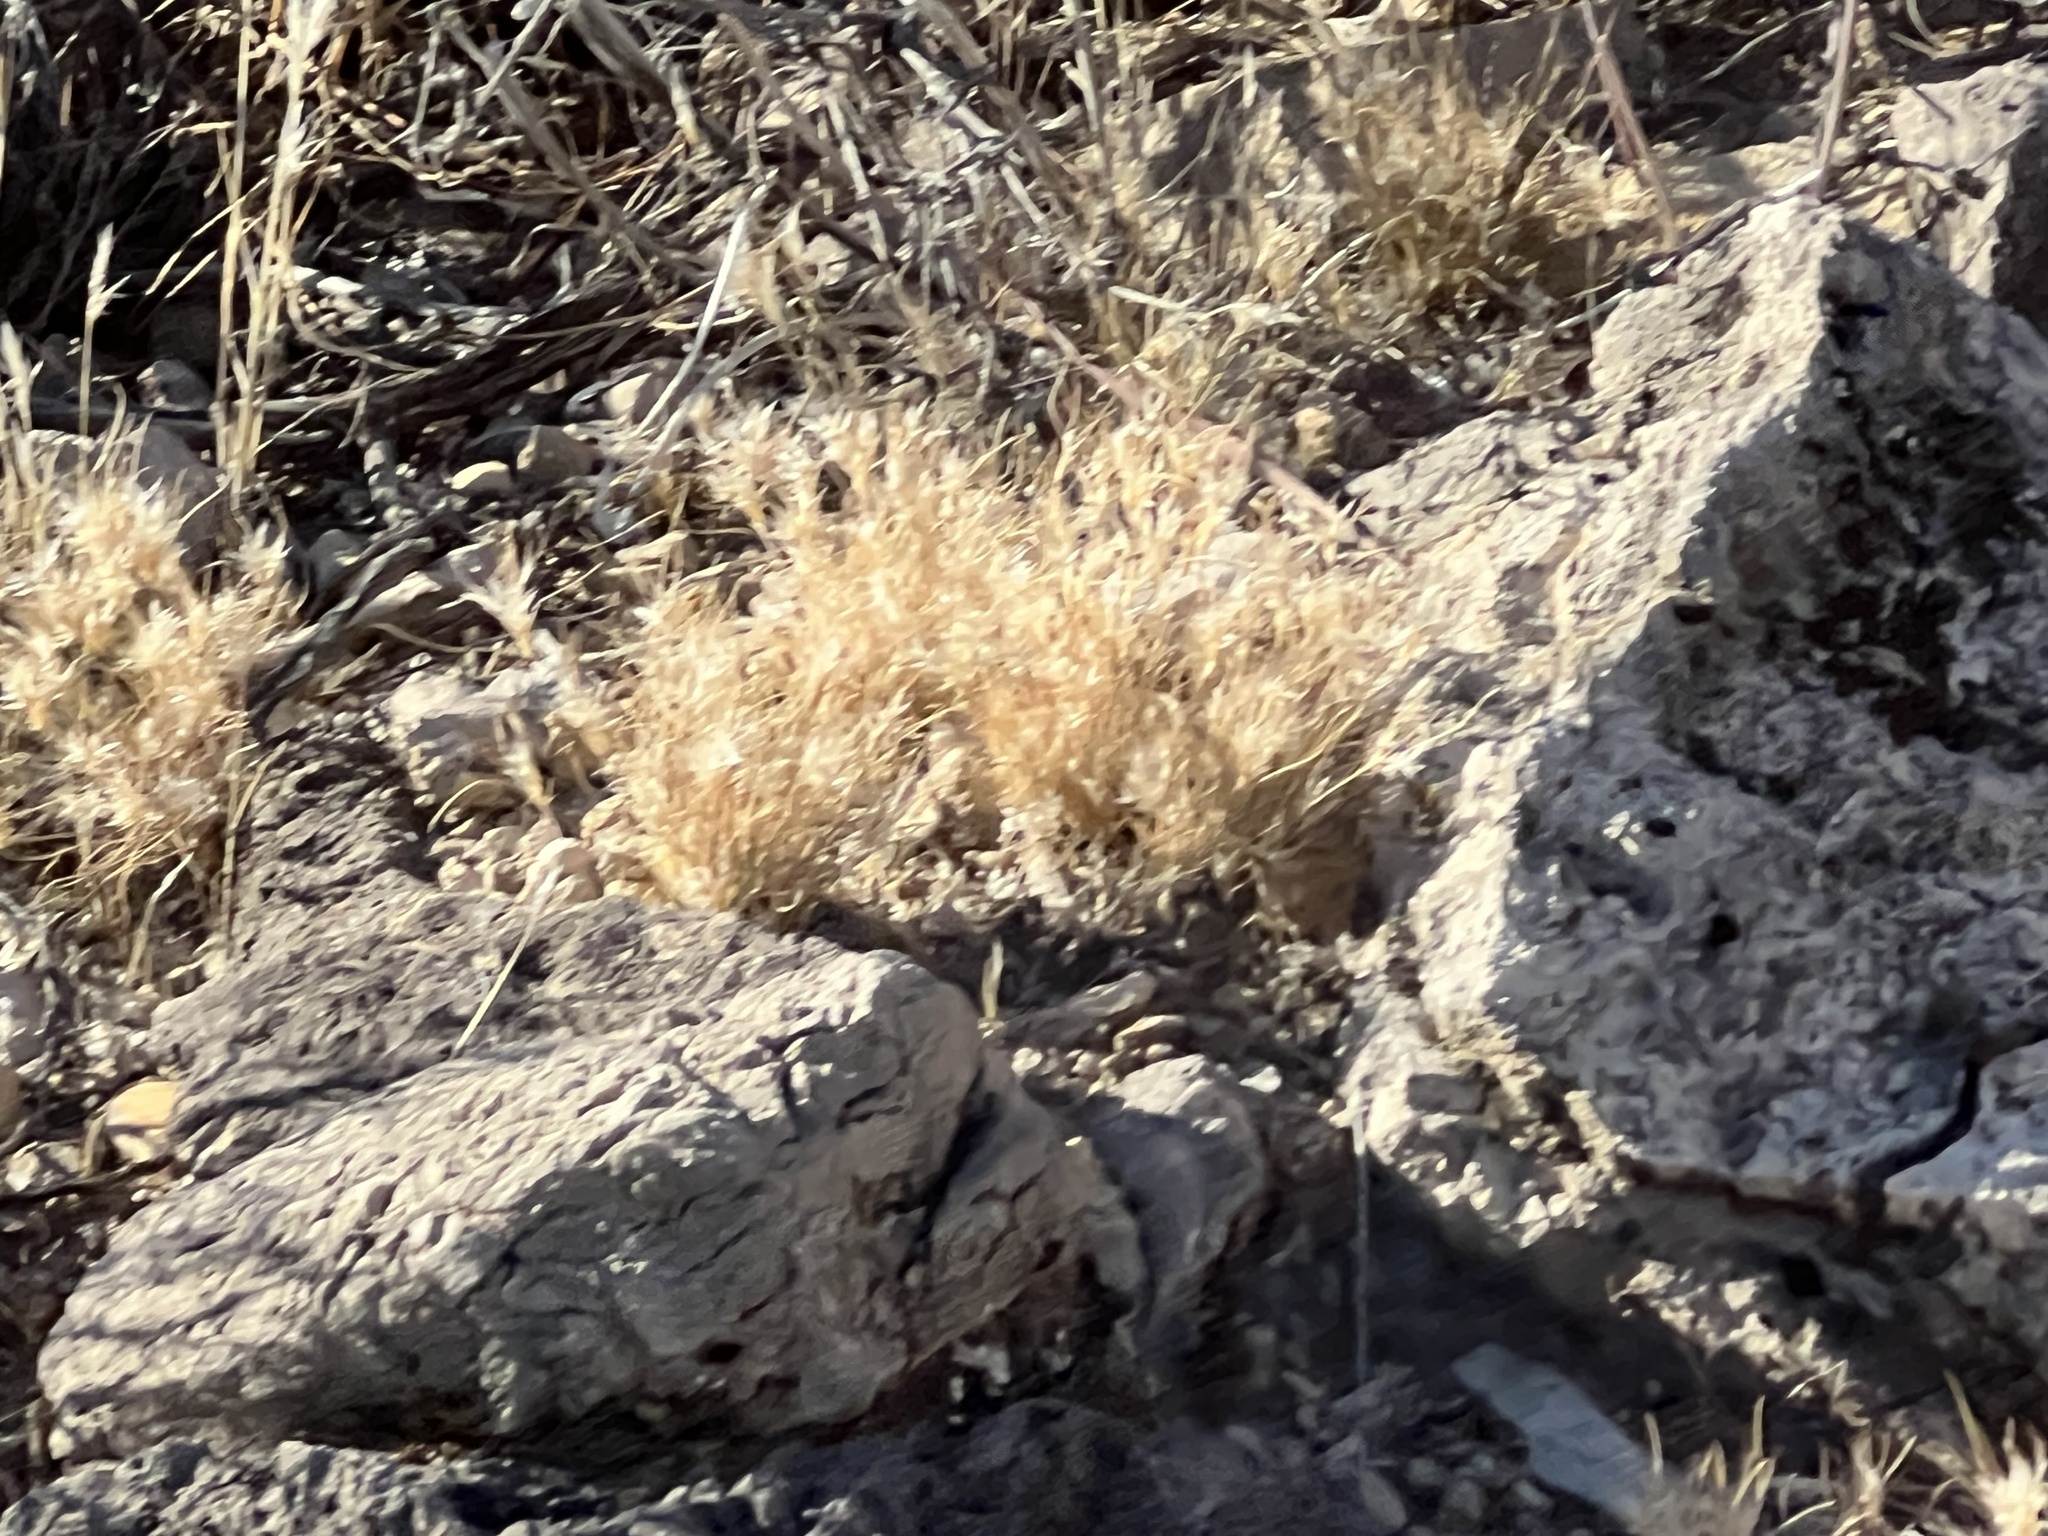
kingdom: Plantae
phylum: Tracheophyta
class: Liliopsida
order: Poales
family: Poaceae
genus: Dasyochloa
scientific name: Dasyochloa pulchella
